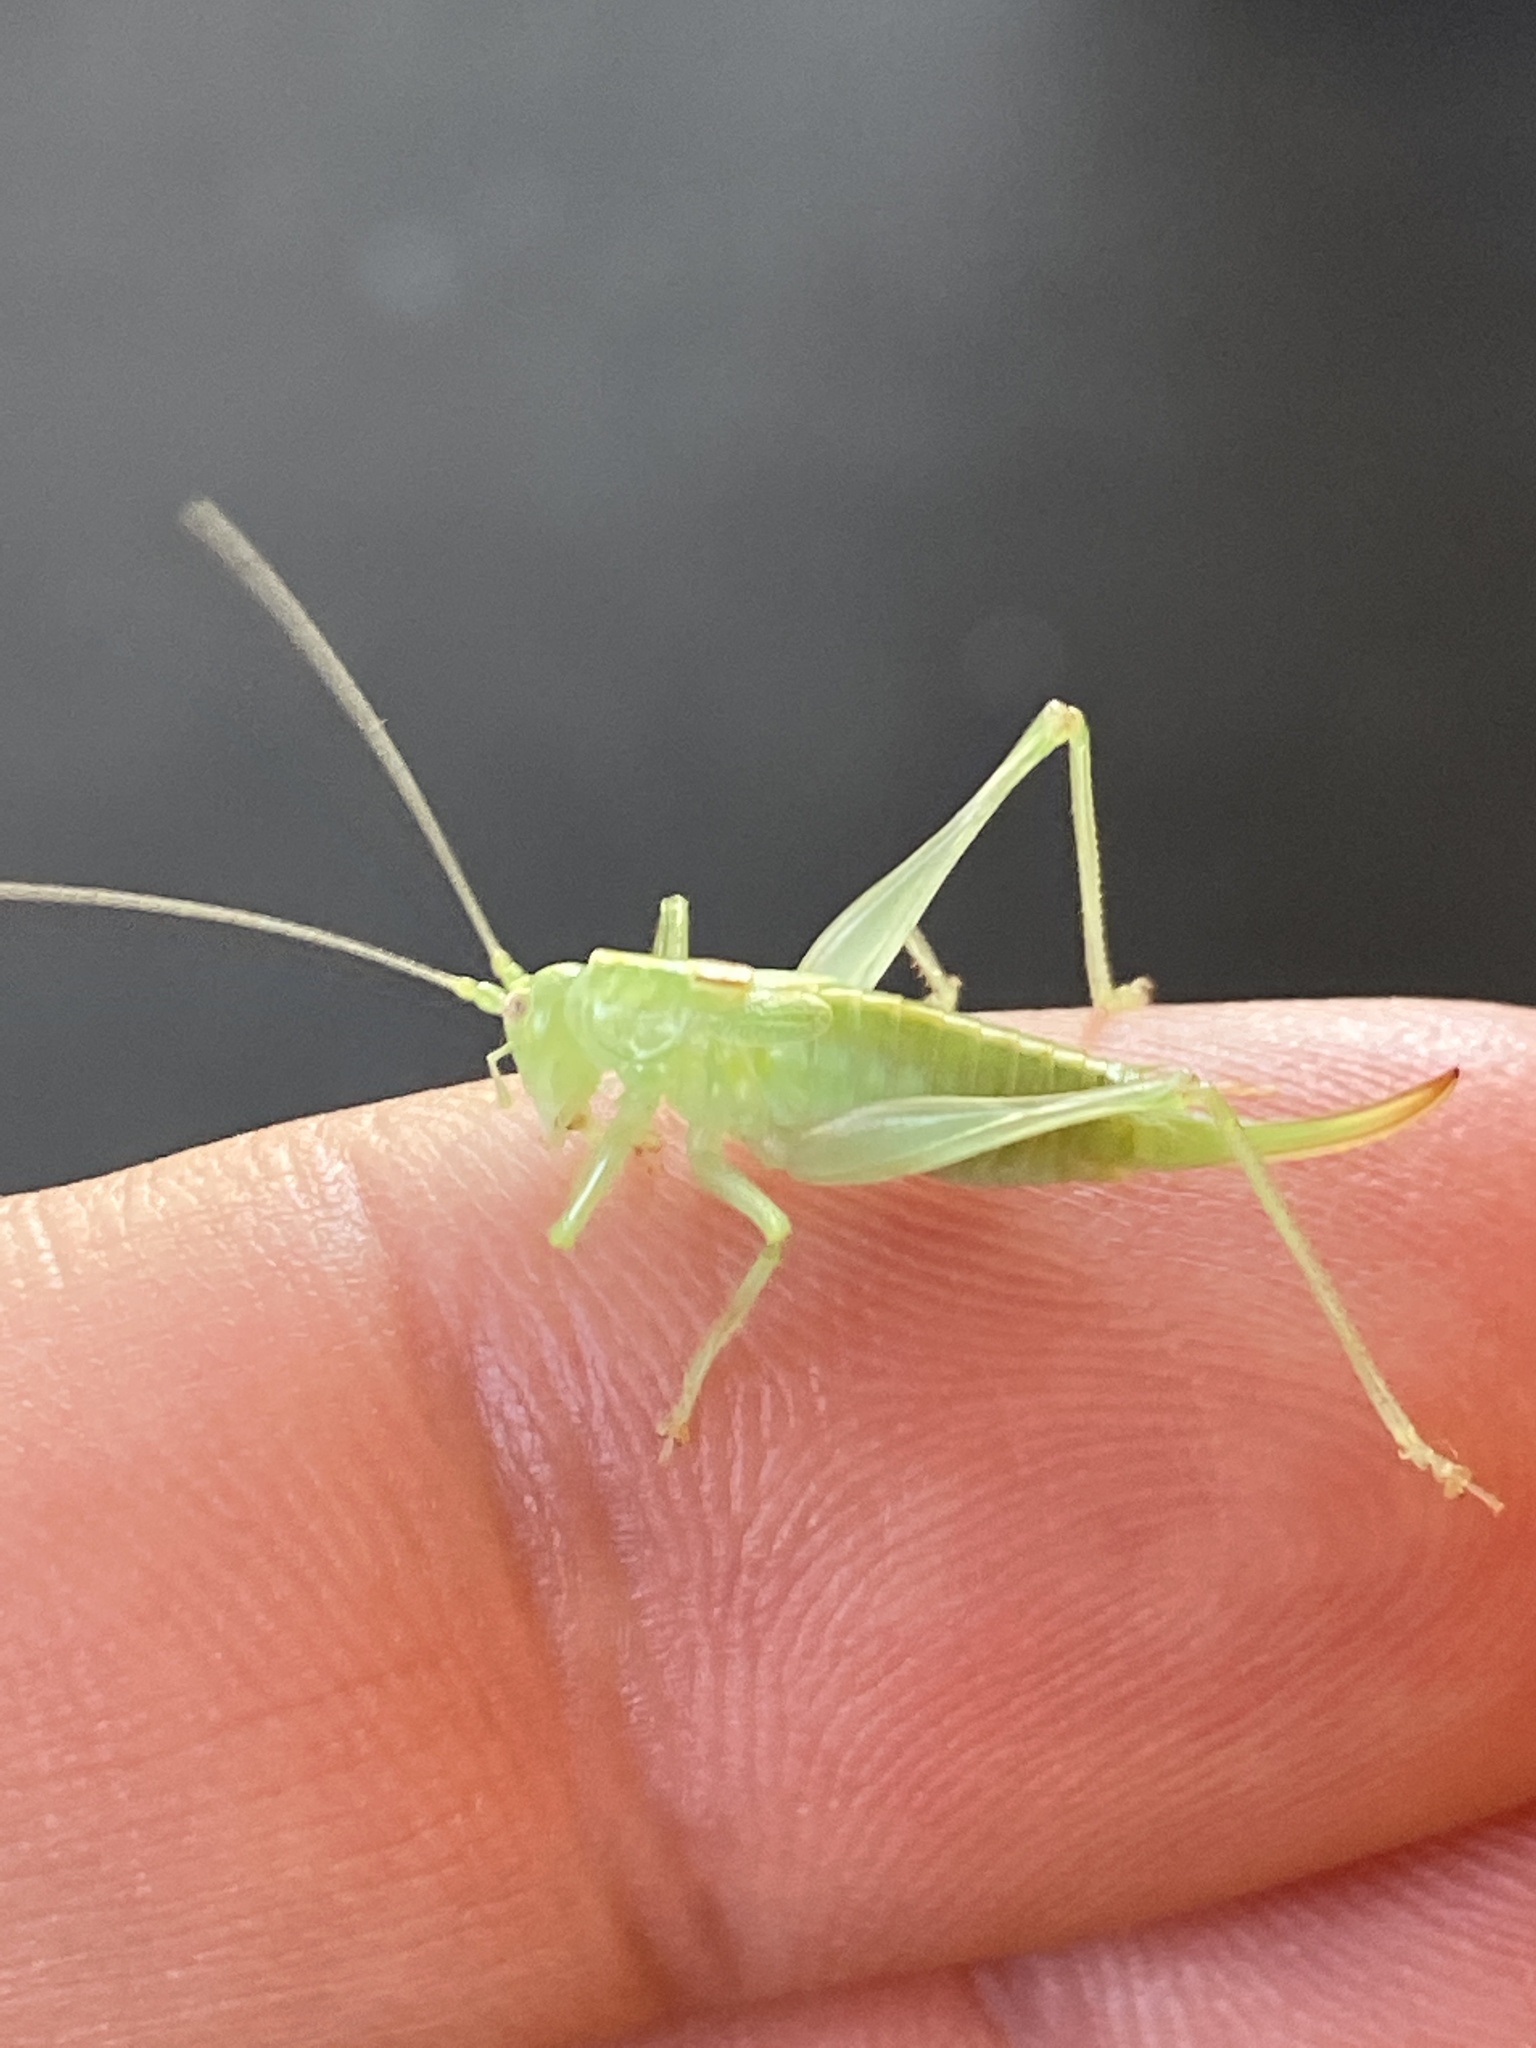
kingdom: Animalia
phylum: Arthropoda
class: Insecta
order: Orthoptera
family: Tettigoniidae
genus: Meconema
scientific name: Meconema meridionale
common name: Southern oak bush-cricket
